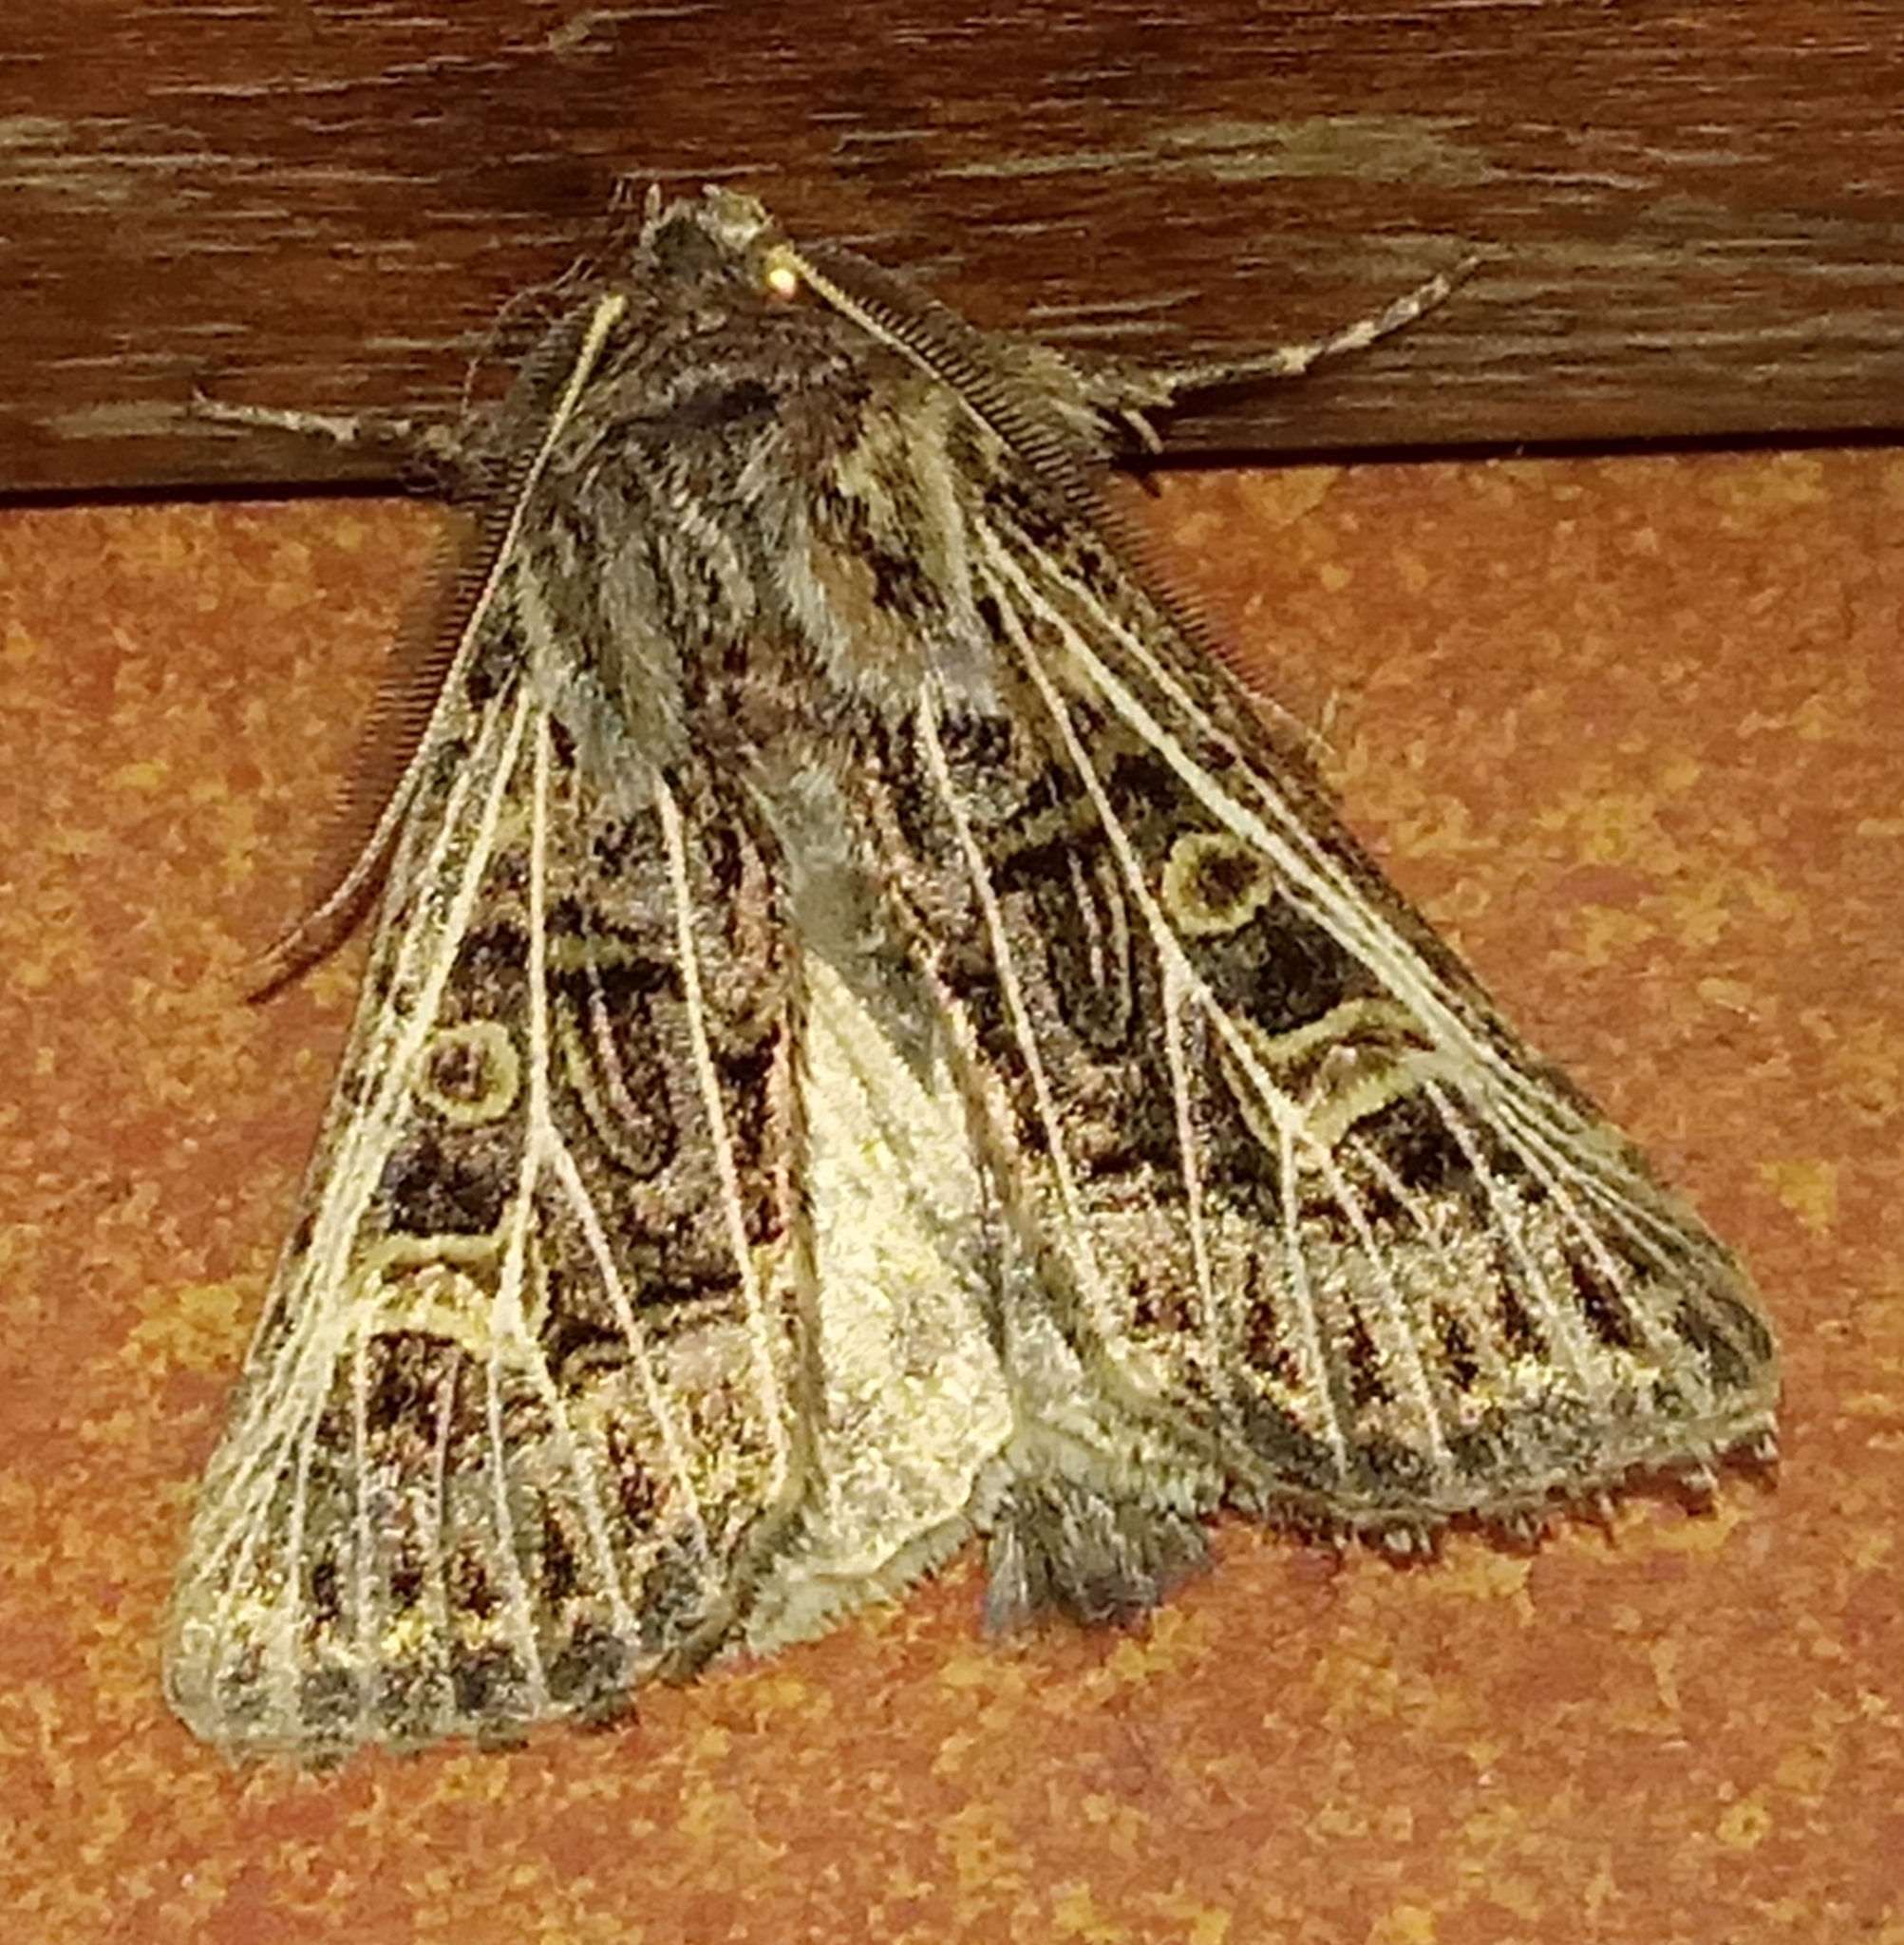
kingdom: Animalia
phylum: Arthropoda
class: Insecta
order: Lepidoptera
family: Noctuidae
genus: Tholera
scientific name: Tholera decimalis
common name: Feathered gothic
